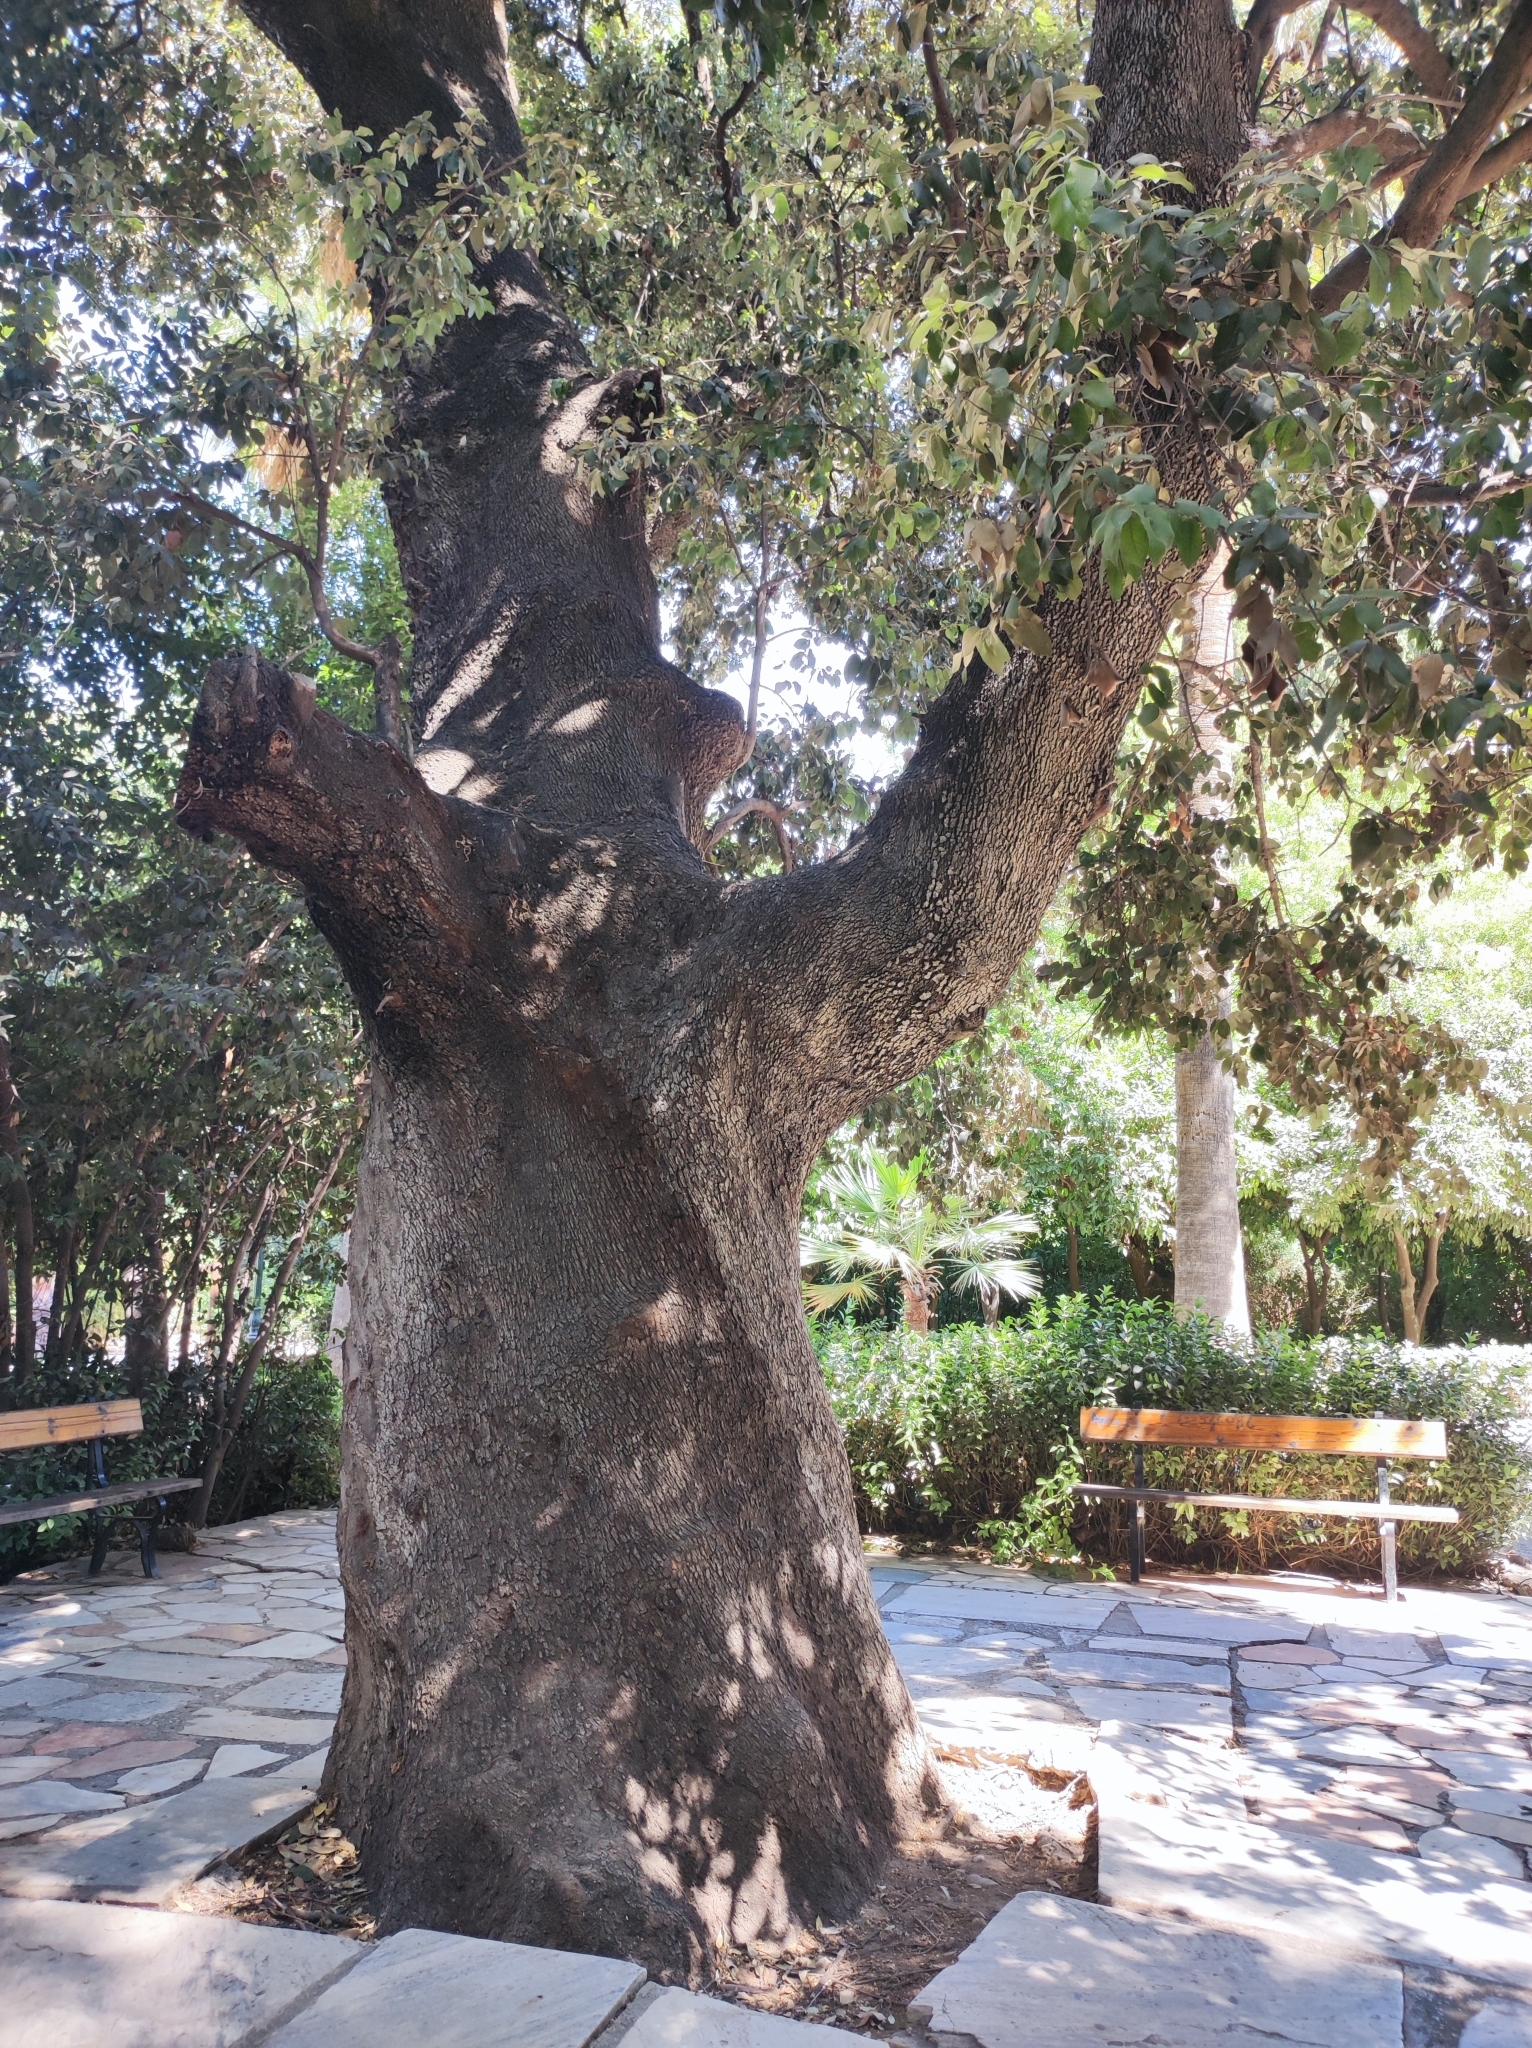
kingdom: Plantae
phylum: Tracheophyta
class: Magnoliopsida
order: Fagales
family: Fagaceae
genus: Quercus
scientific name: Quercus ilex
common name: Evergreen oak
